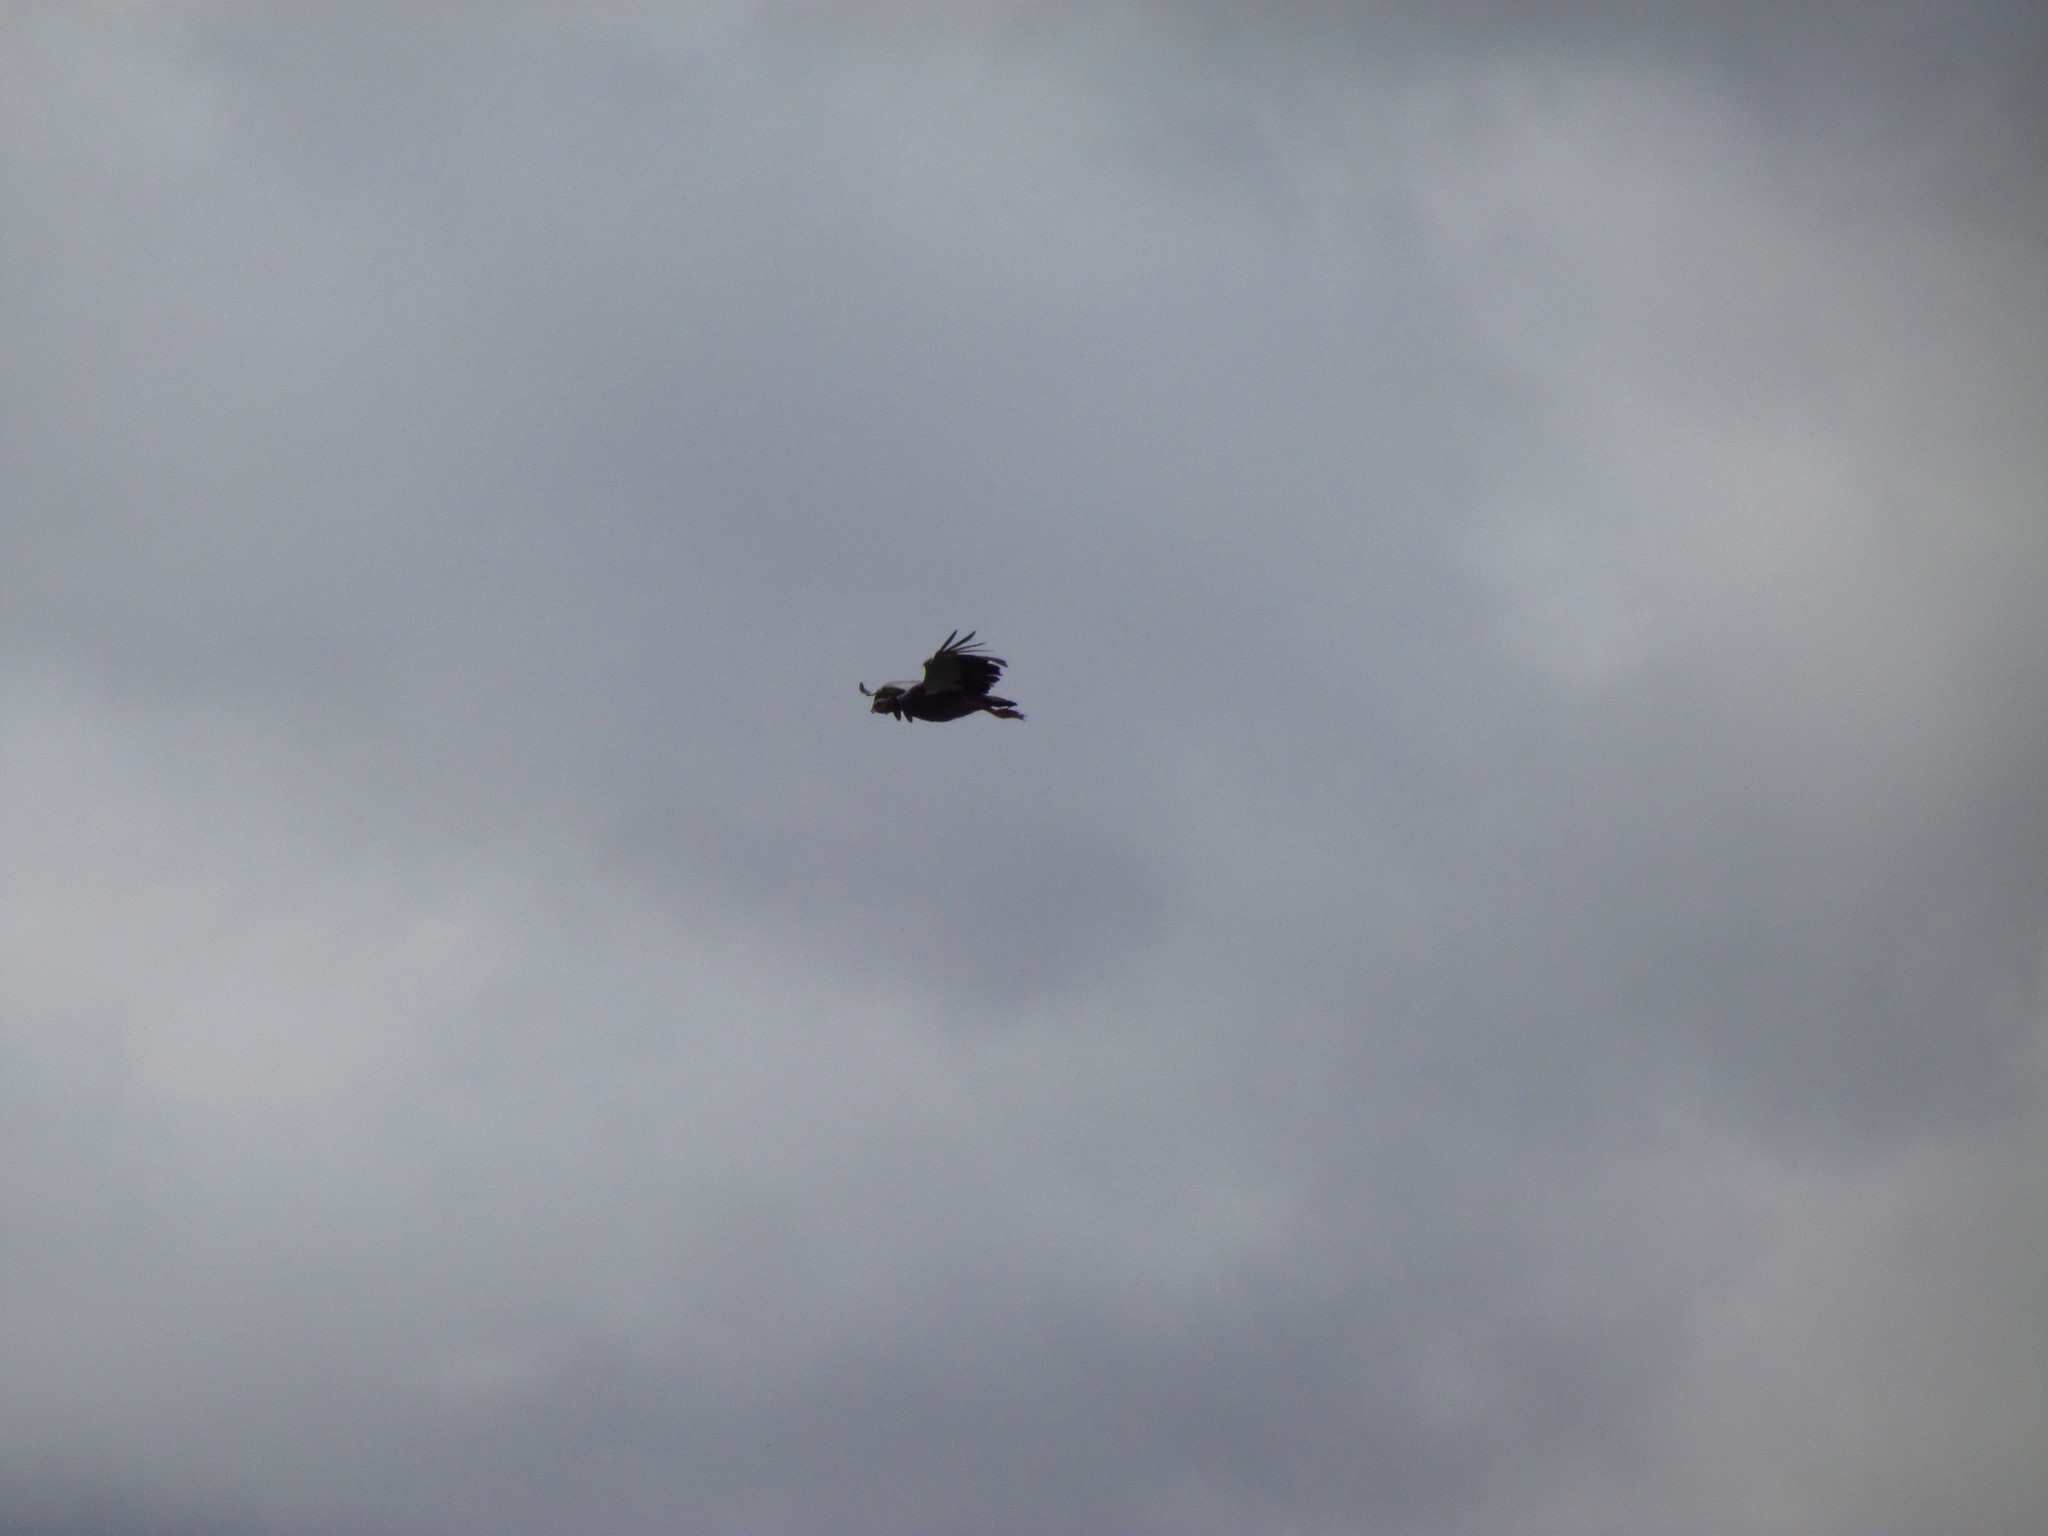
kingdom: Animalia
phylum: Chordata
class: Aves
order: Anseriformes
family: Anhimidae
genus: Chauna
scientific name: Chauna torquata
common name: Southern screamer
